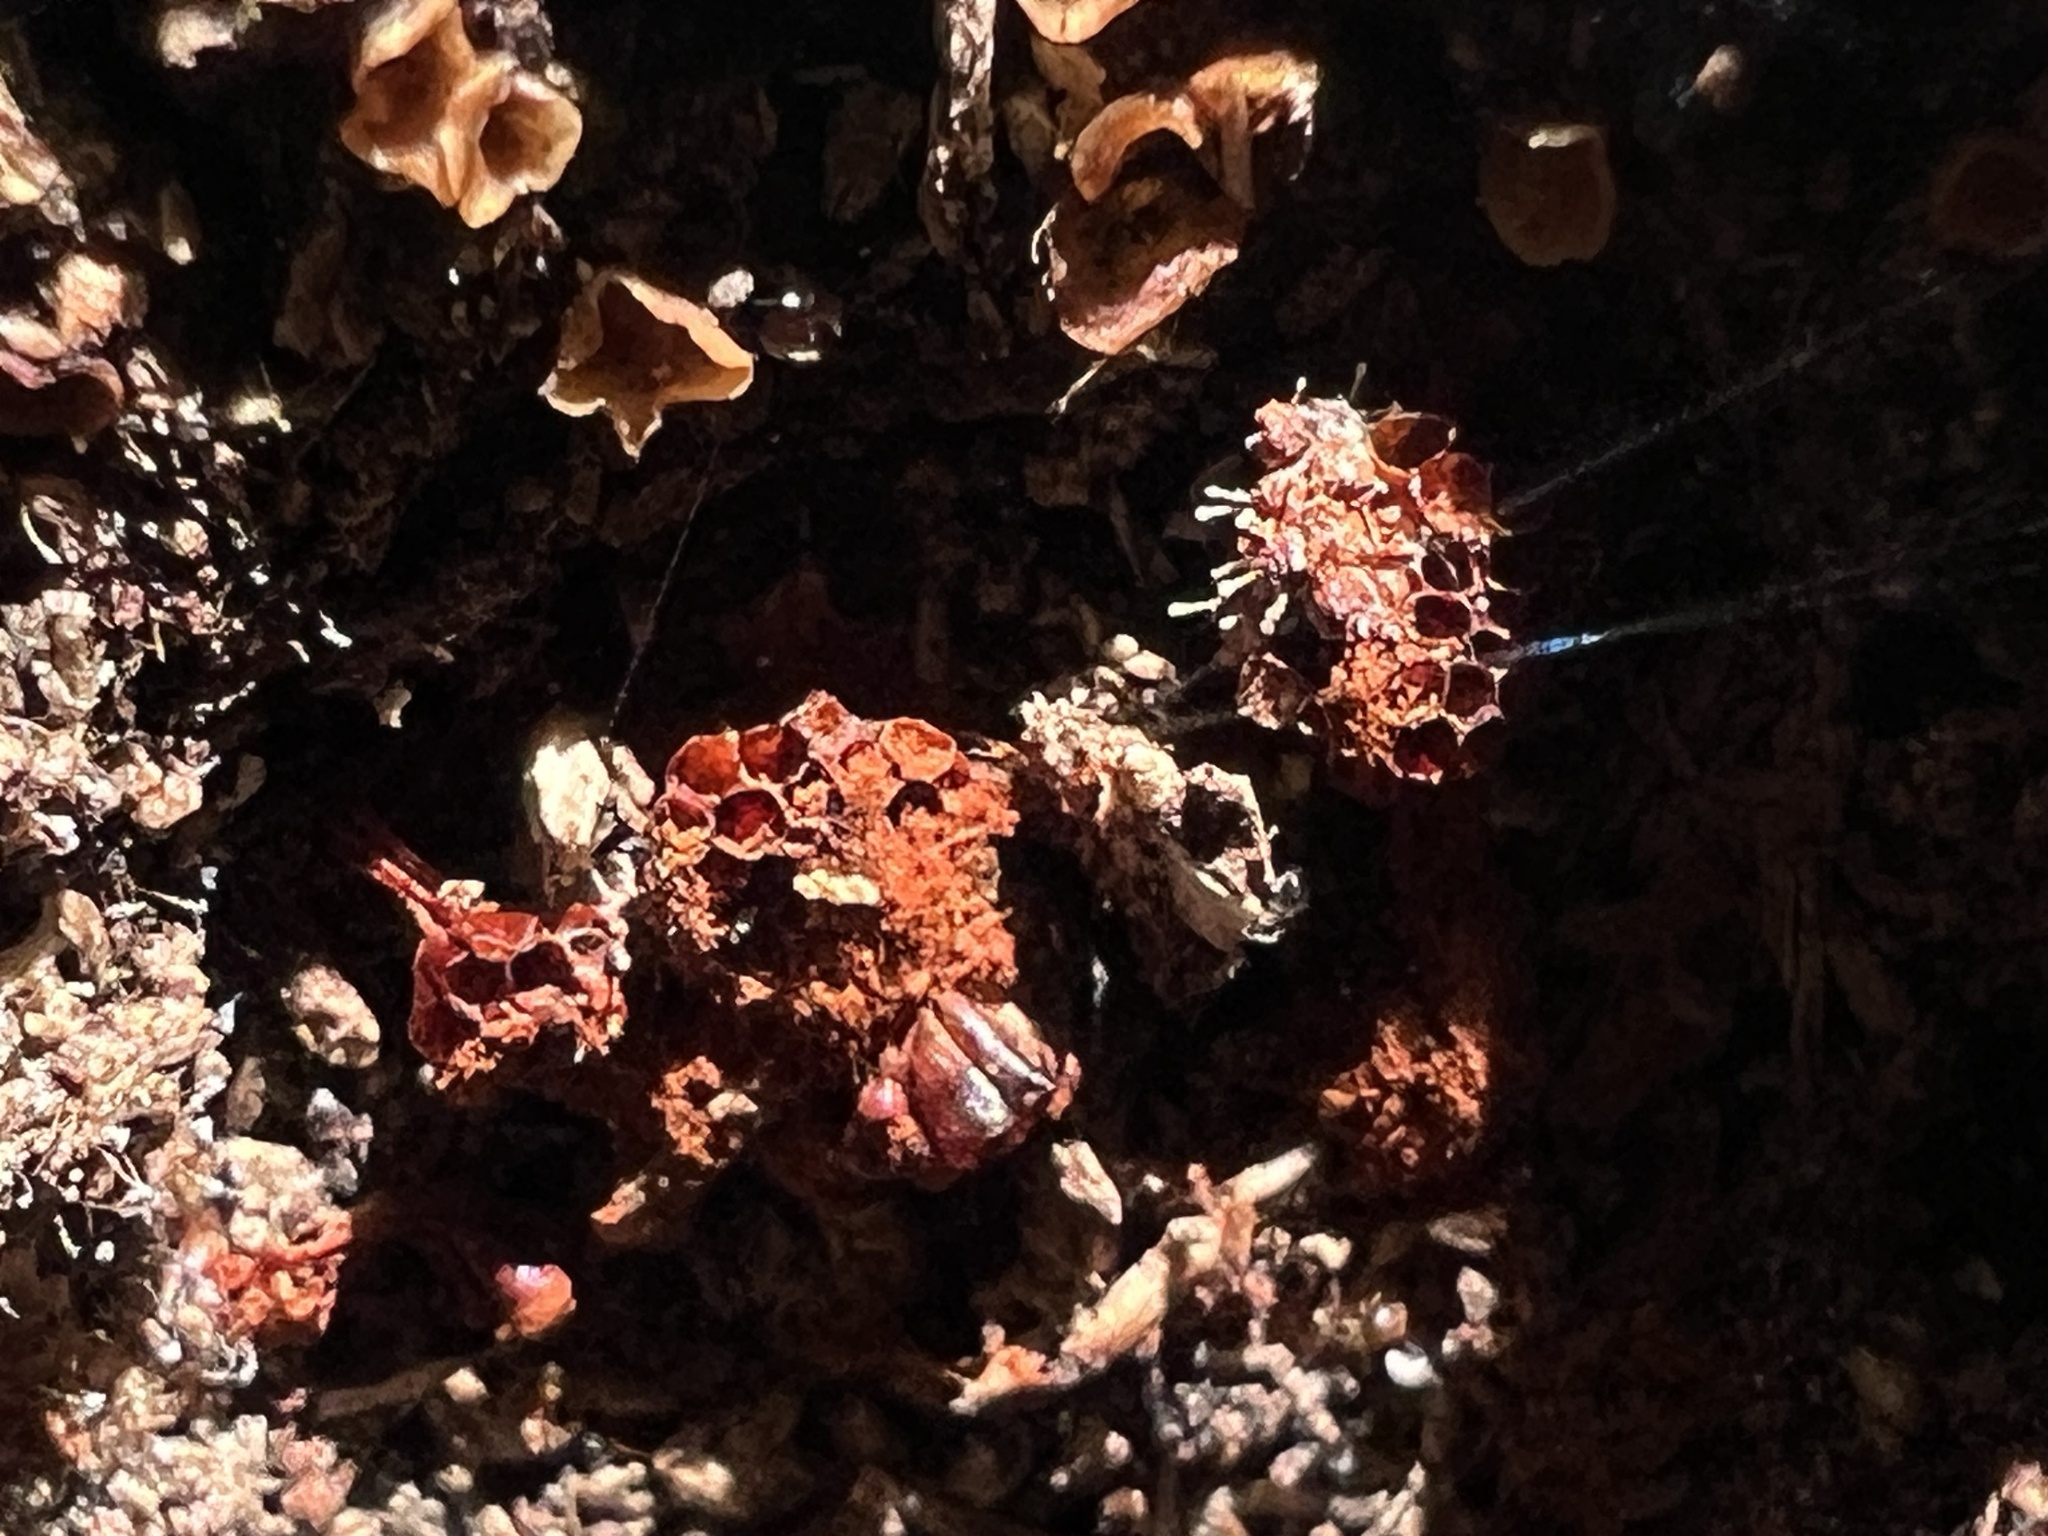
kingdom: Protozoa
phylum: Mycetozoa
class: Myxomycetes
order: Trichiales
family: Trichiaceae
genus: Metatrichia
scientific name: Metatrichia vesparia
